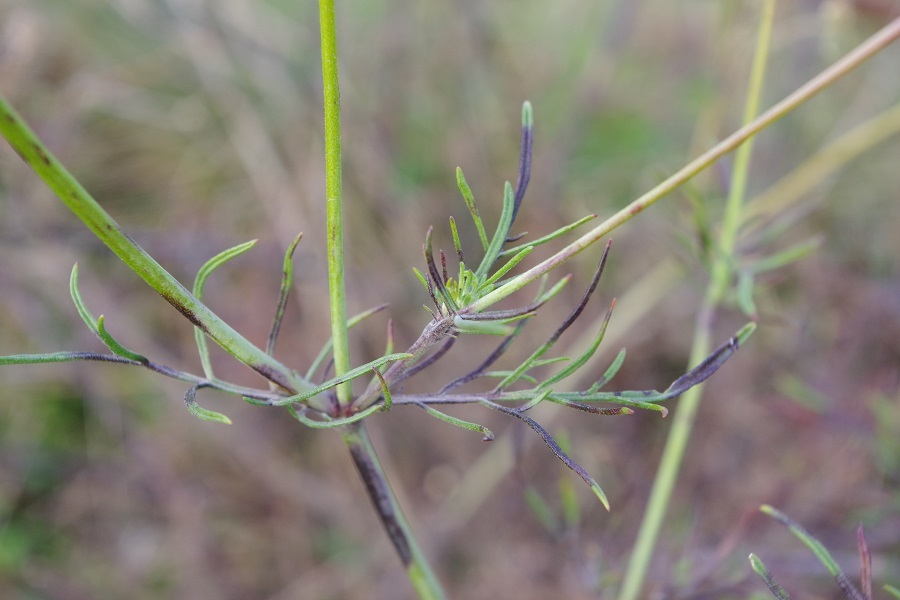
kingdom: Plantae
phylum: Tracheophyta
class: Magnoliopsida
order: Dipsacales
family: Caprifoliaceae
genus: Scabiosa
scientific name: Scabiosa ochroleuca
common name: Cream pincushions
